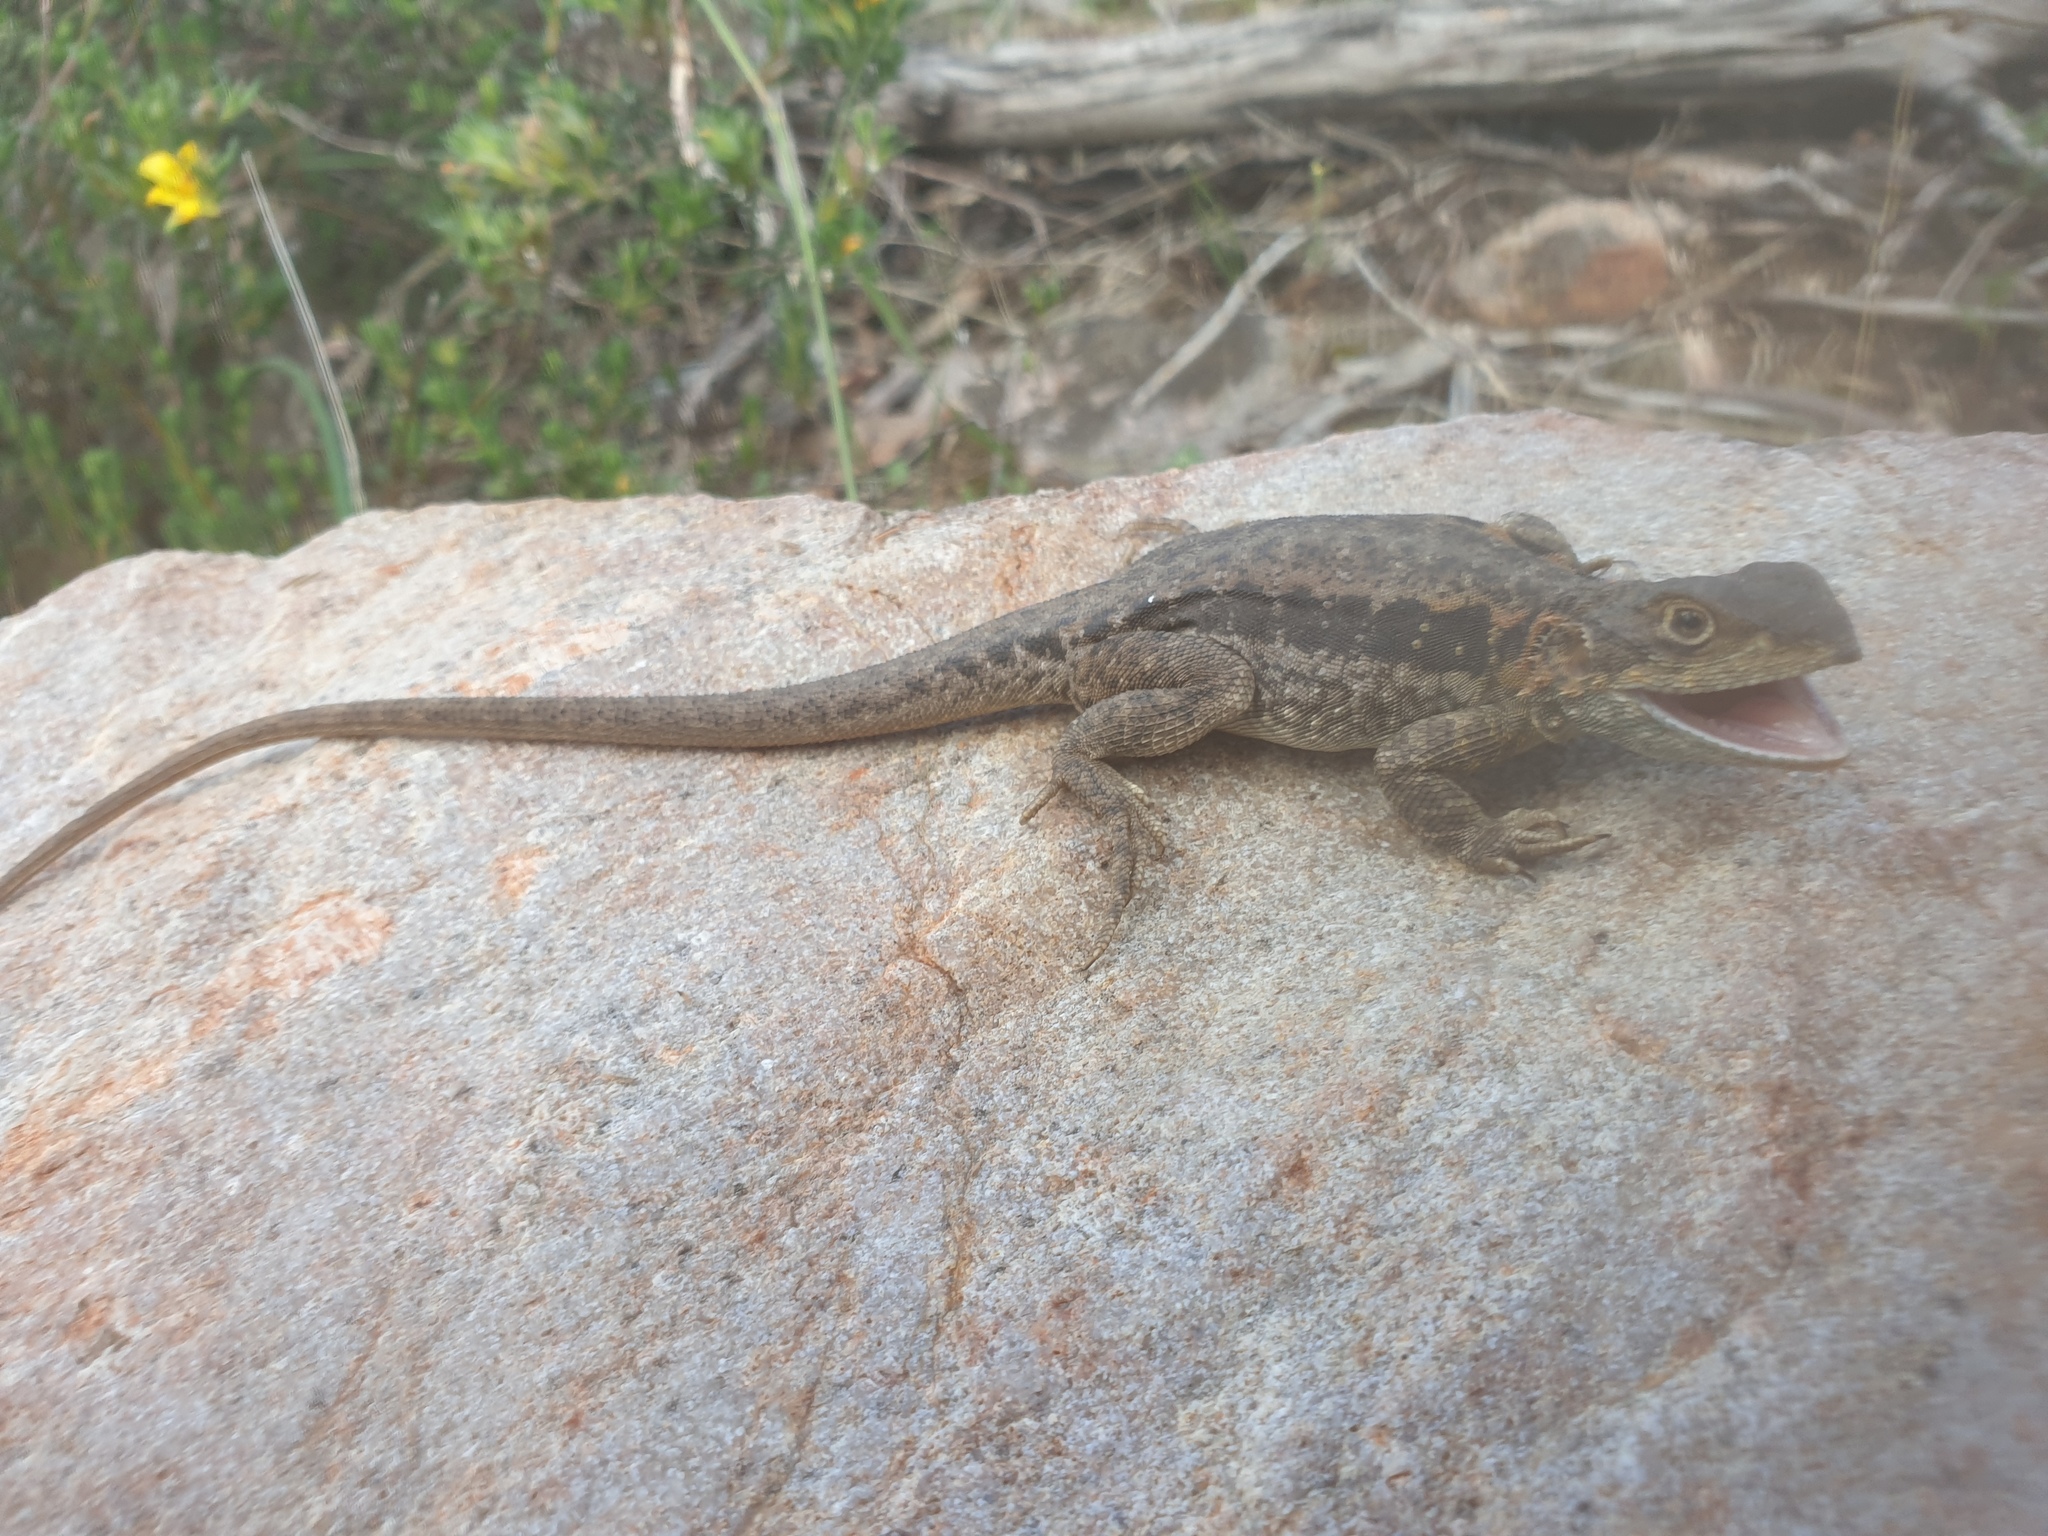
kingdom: Animalia
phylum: Chordata
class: Squamata
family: Agamidae
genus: Ctenophorus
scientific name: Ctenophorus decresii
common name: Tawny dragon
